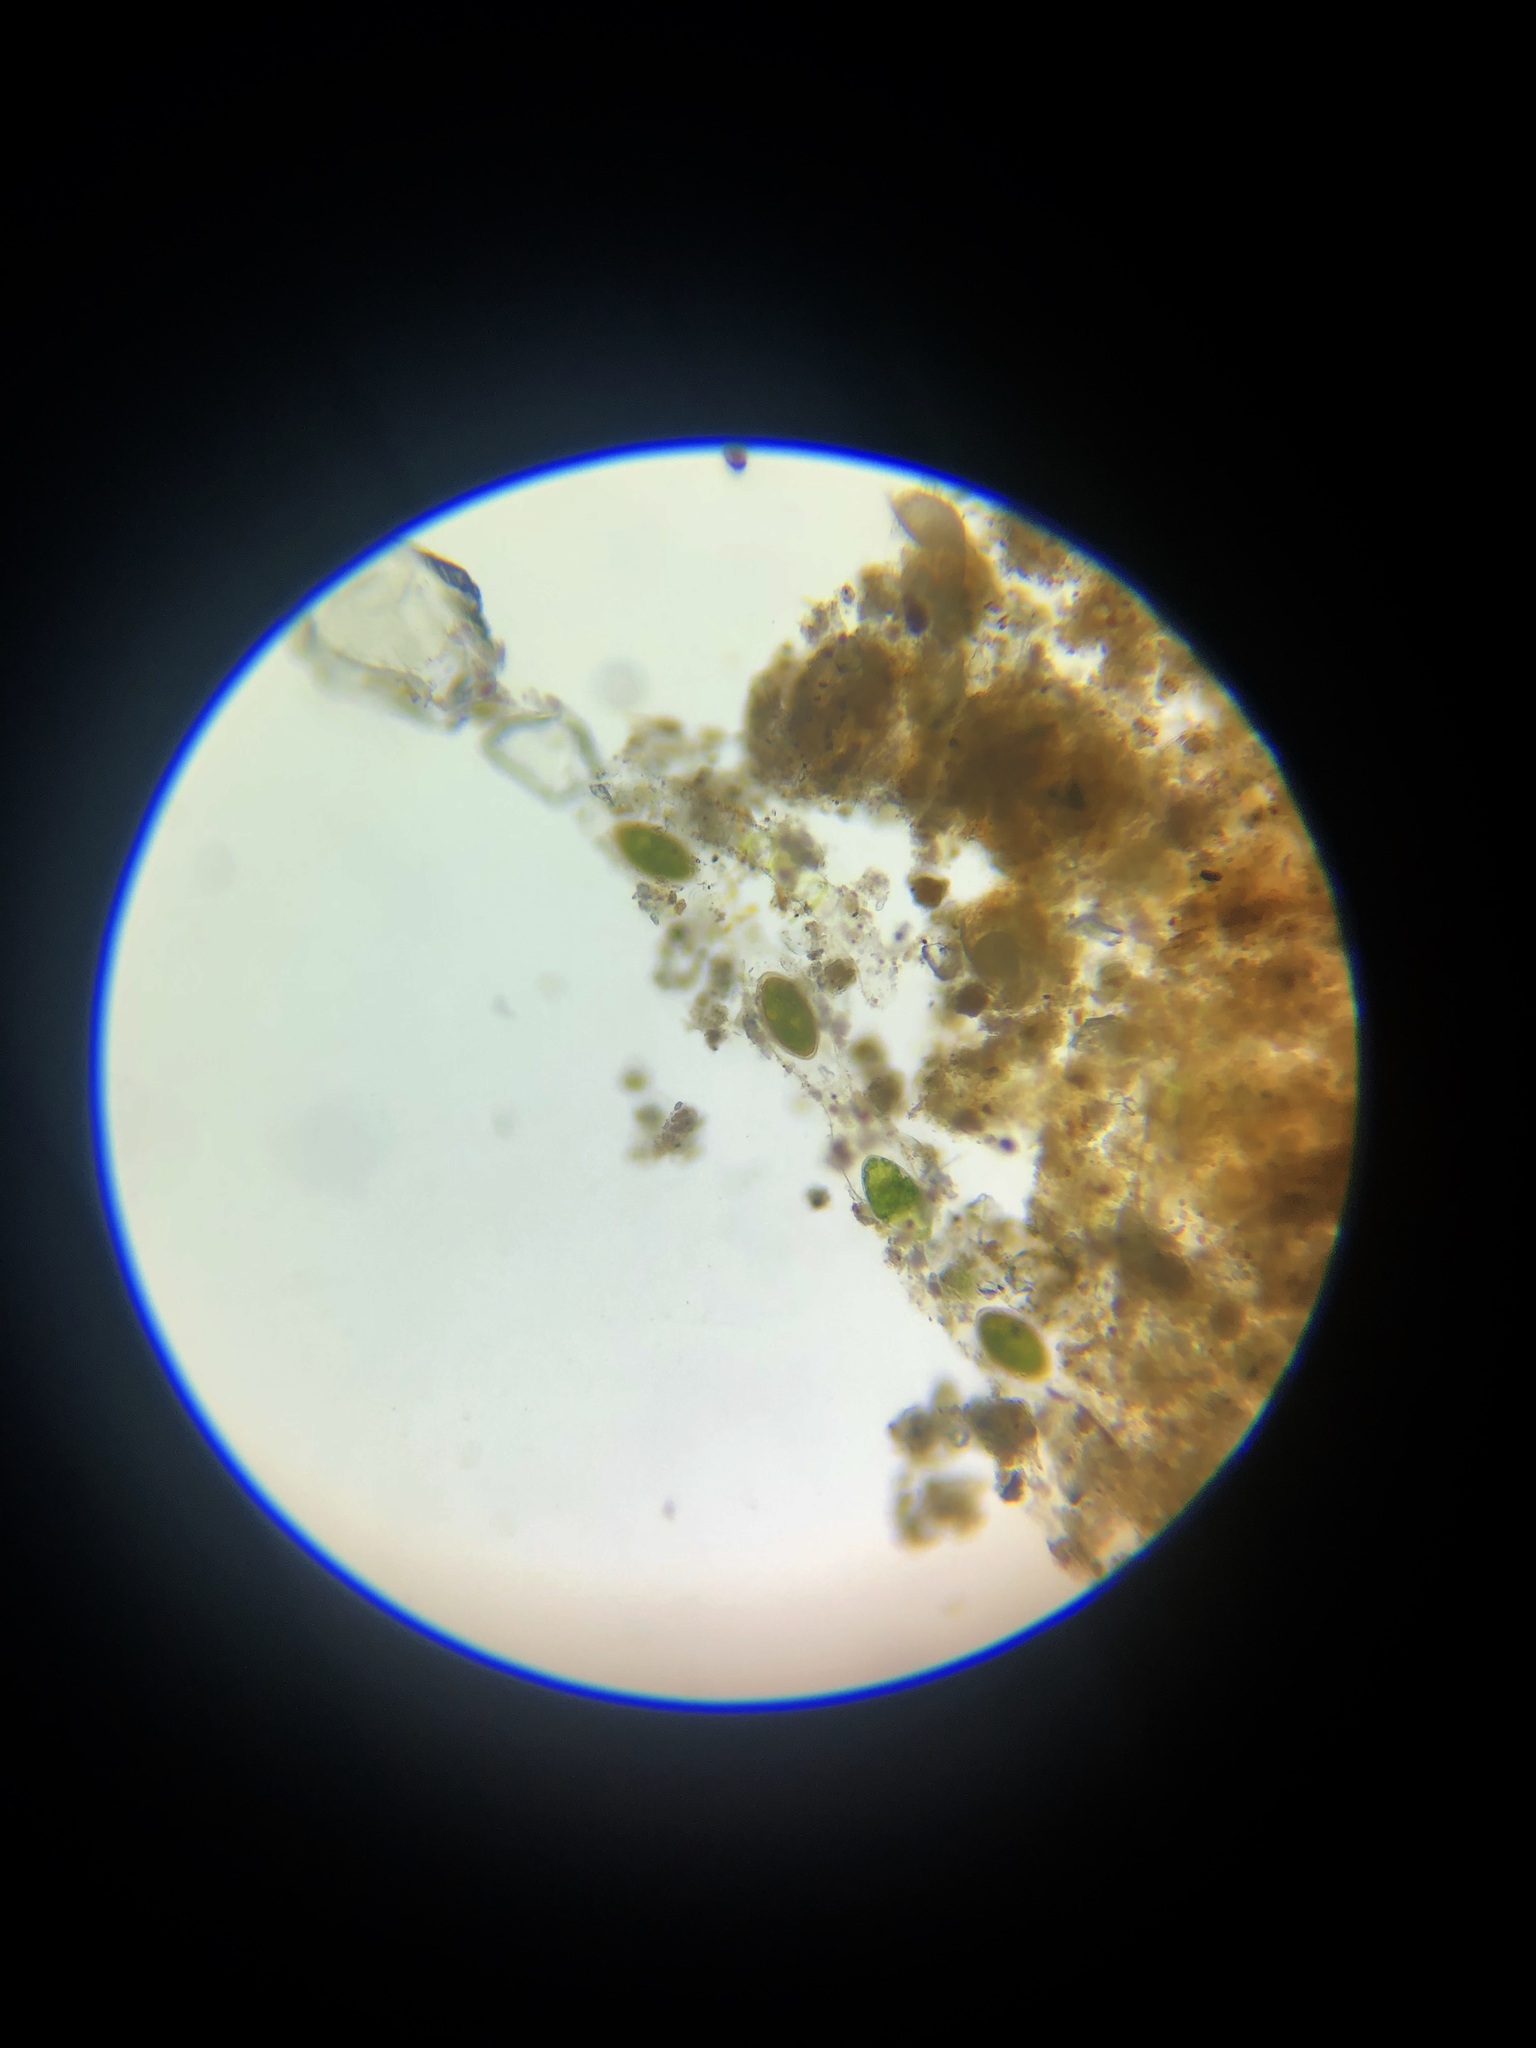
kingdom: Plantae
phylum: Charophyta
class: Zygnematophyceae
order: Zygnematales
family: Zygnemataceae
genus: Spirogyra
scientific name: Spirogyra
